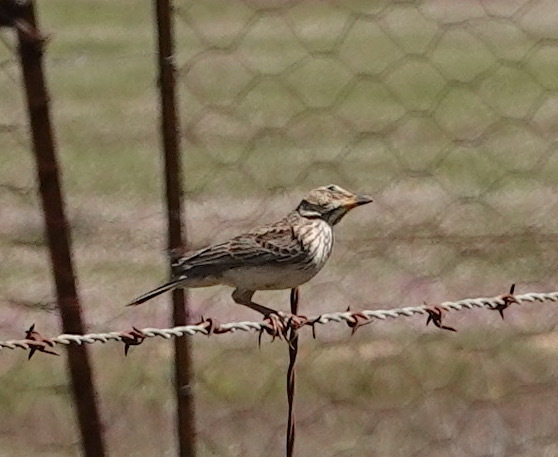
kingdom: Animalia
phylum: Chordata
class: Aves
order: Passeriformes
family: Alaudidae
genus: Galerida
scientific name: Galerida magnirostris
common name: Large-billed lark
